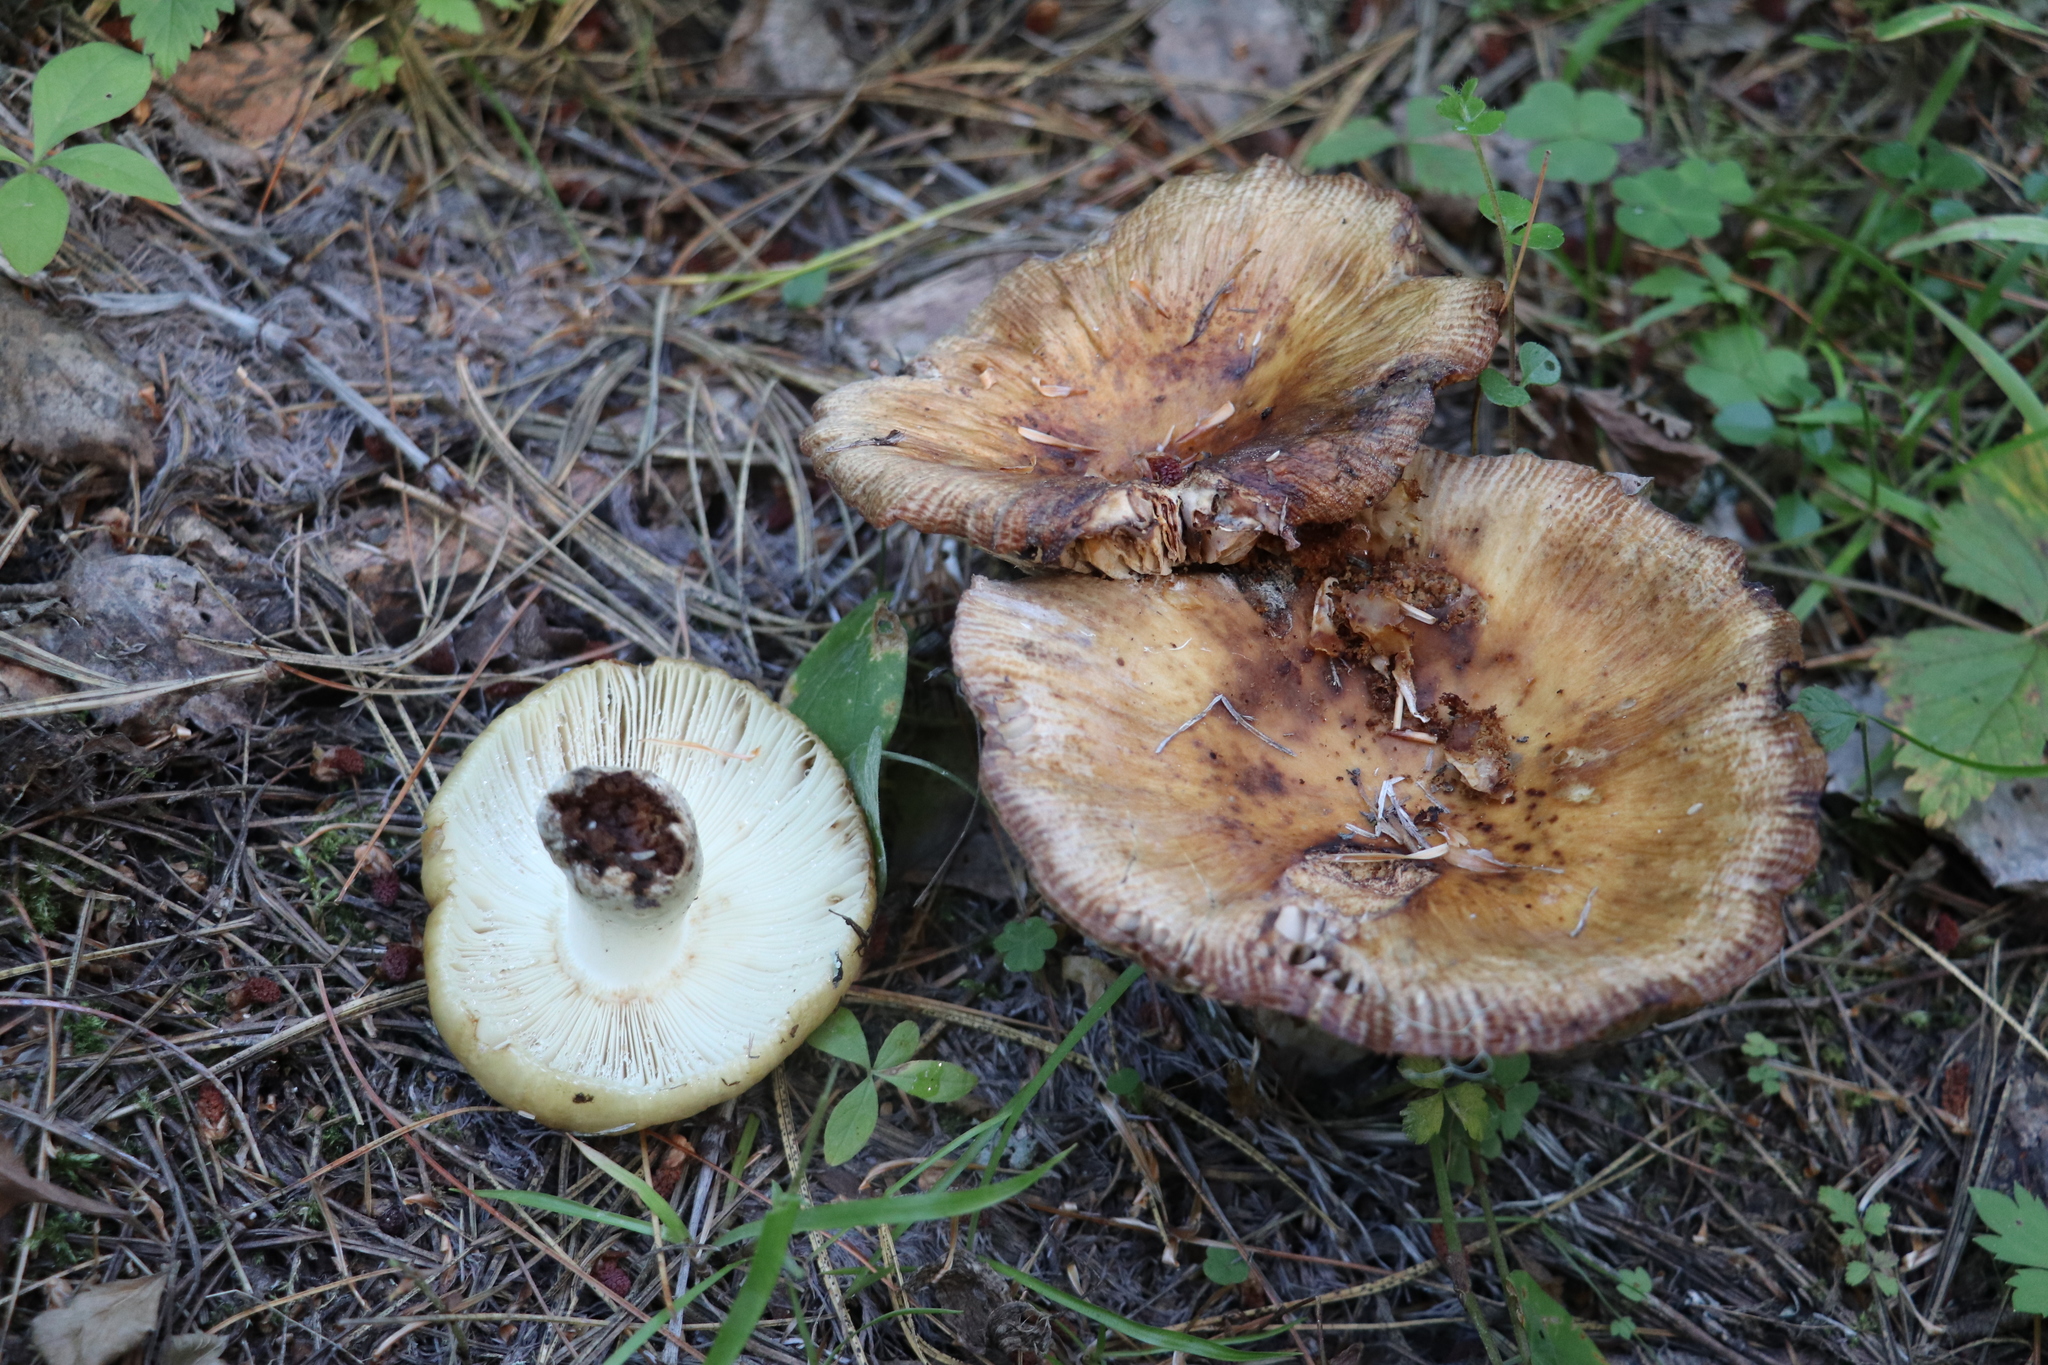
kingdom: Fungi
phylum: Basidiomycota
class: Agaricomycetes
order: Russulales
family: Russulaceae
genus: Russula
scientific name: Russula foetens
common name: Foetid russula
